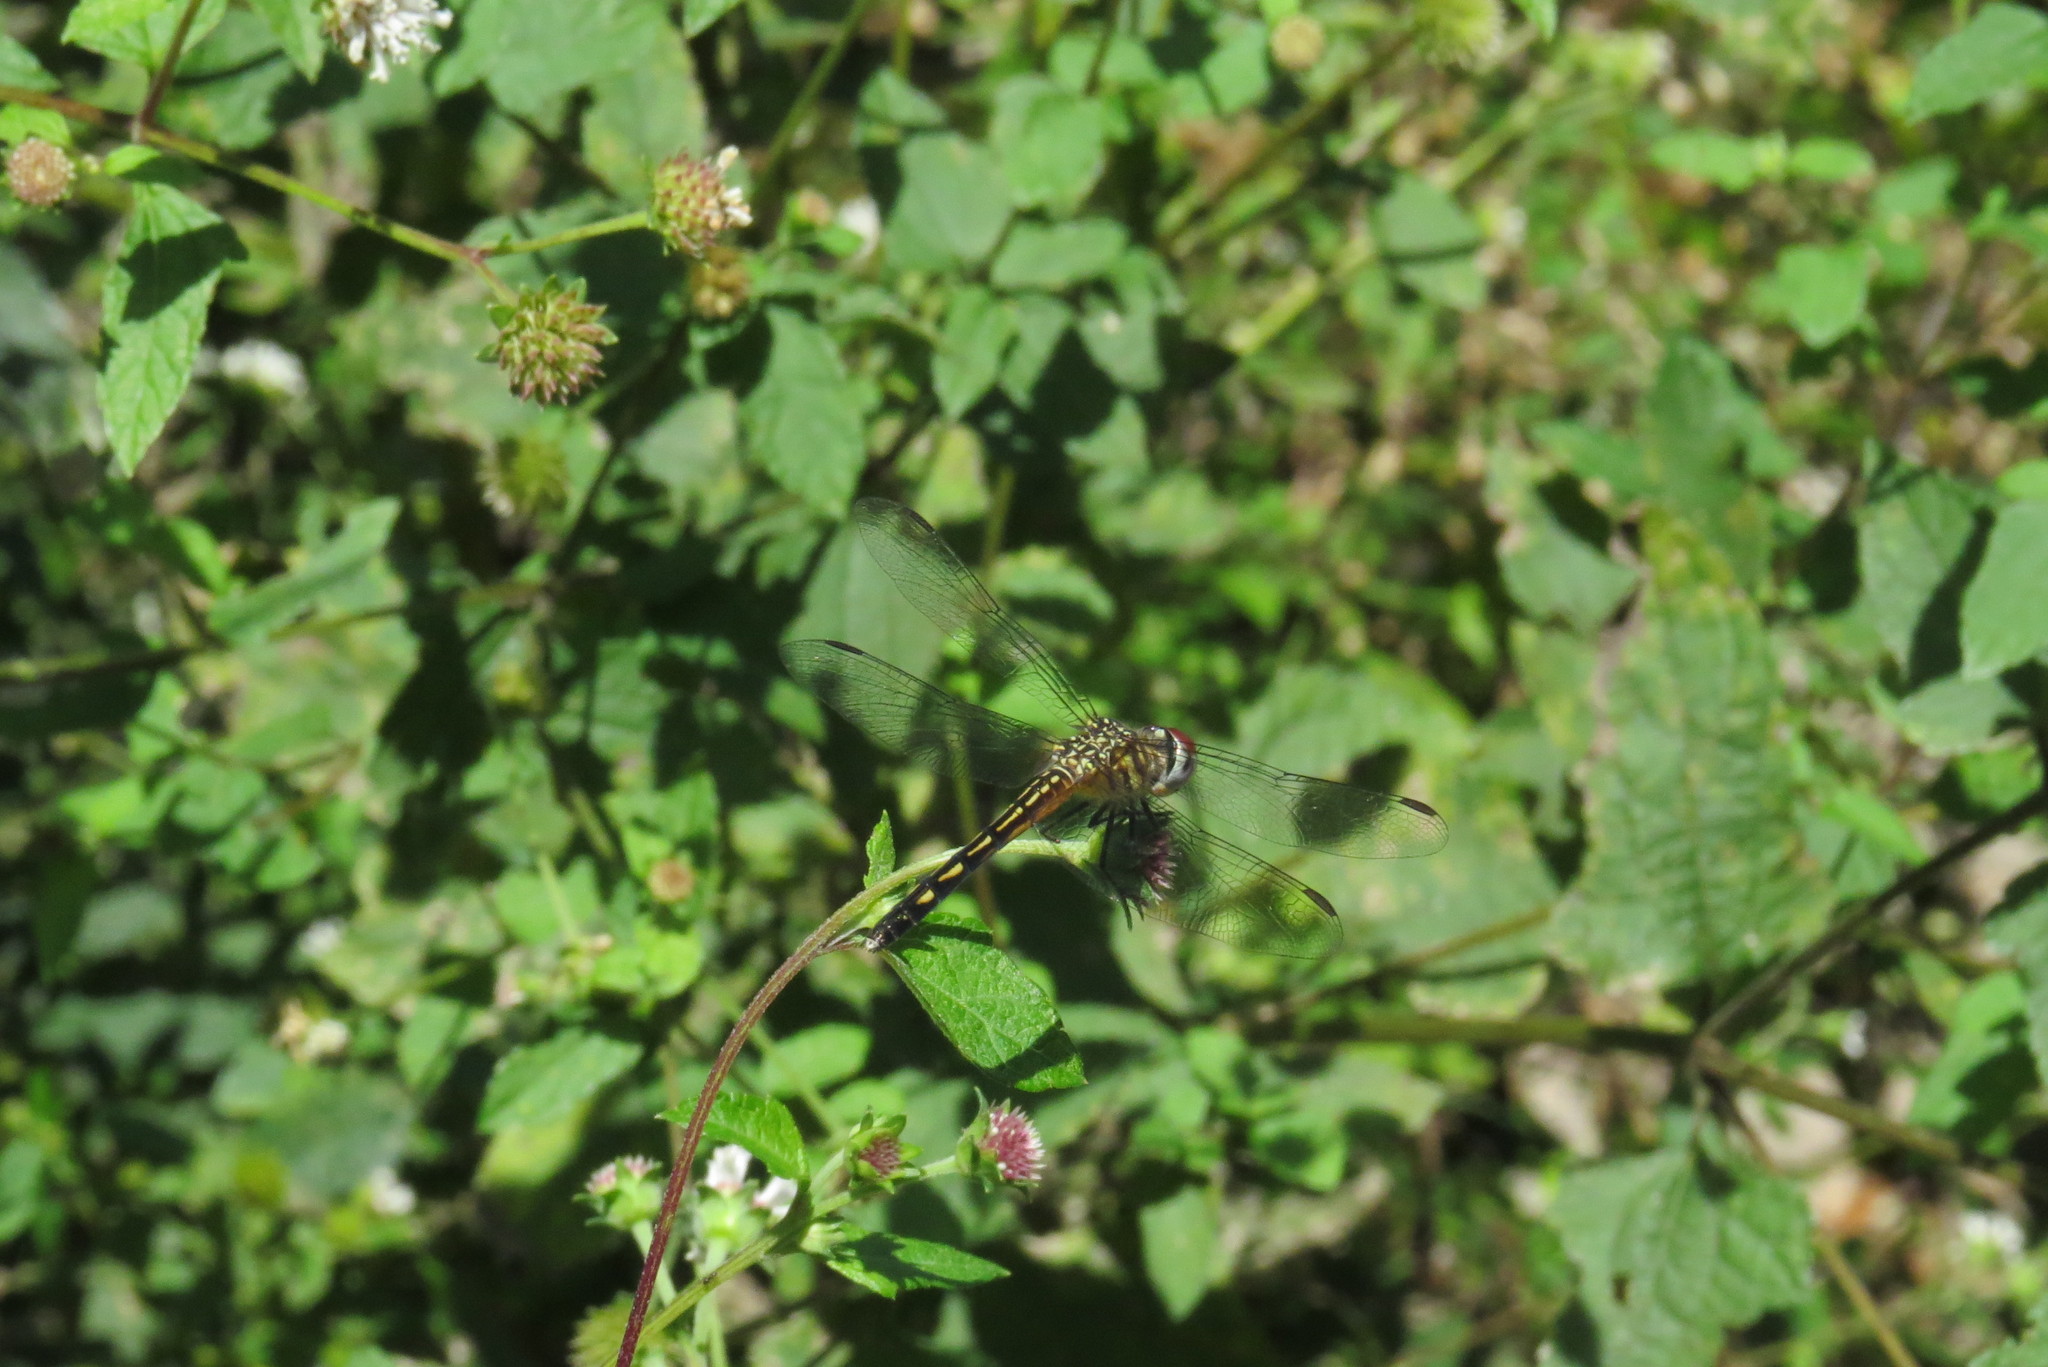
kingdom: Animalia
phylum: Arthropoda
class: Insecta
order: Odonata
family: Libellulidae
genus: Pachydiplax
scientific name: Pachydiplax longipennis
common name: Blue dasher
